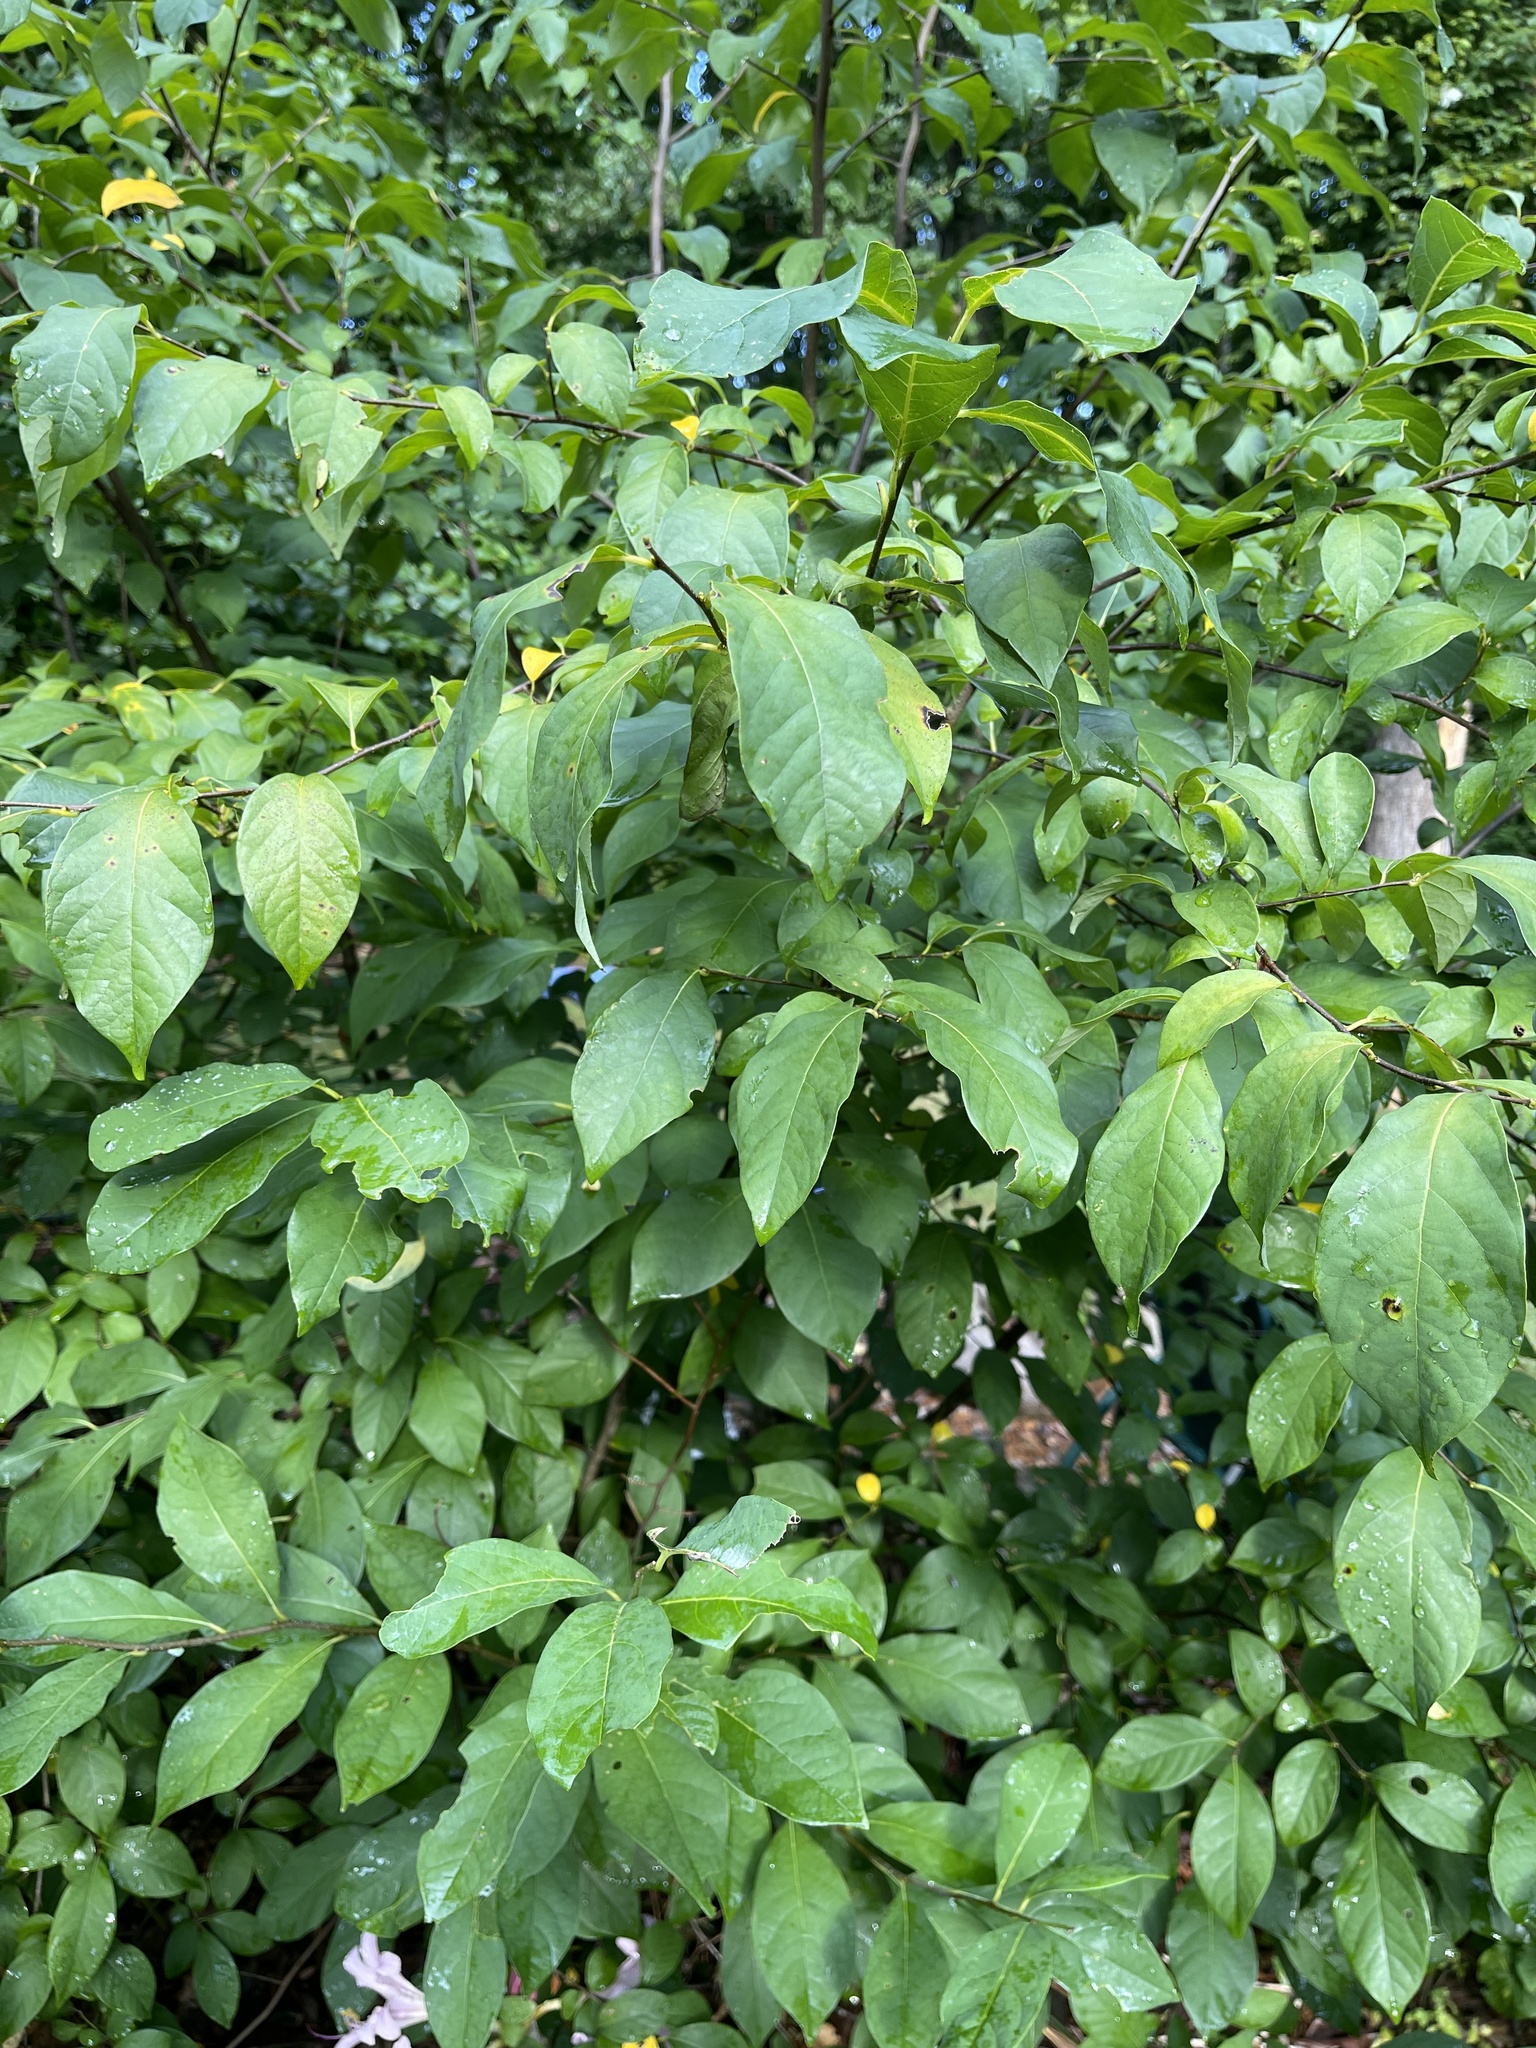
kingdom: Plantae
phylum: Tracheophyta
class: Magnoliopsida
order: Laurales
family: Lauraceae
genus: Lindera
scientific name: Lindera benzoin
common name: Spicebush
